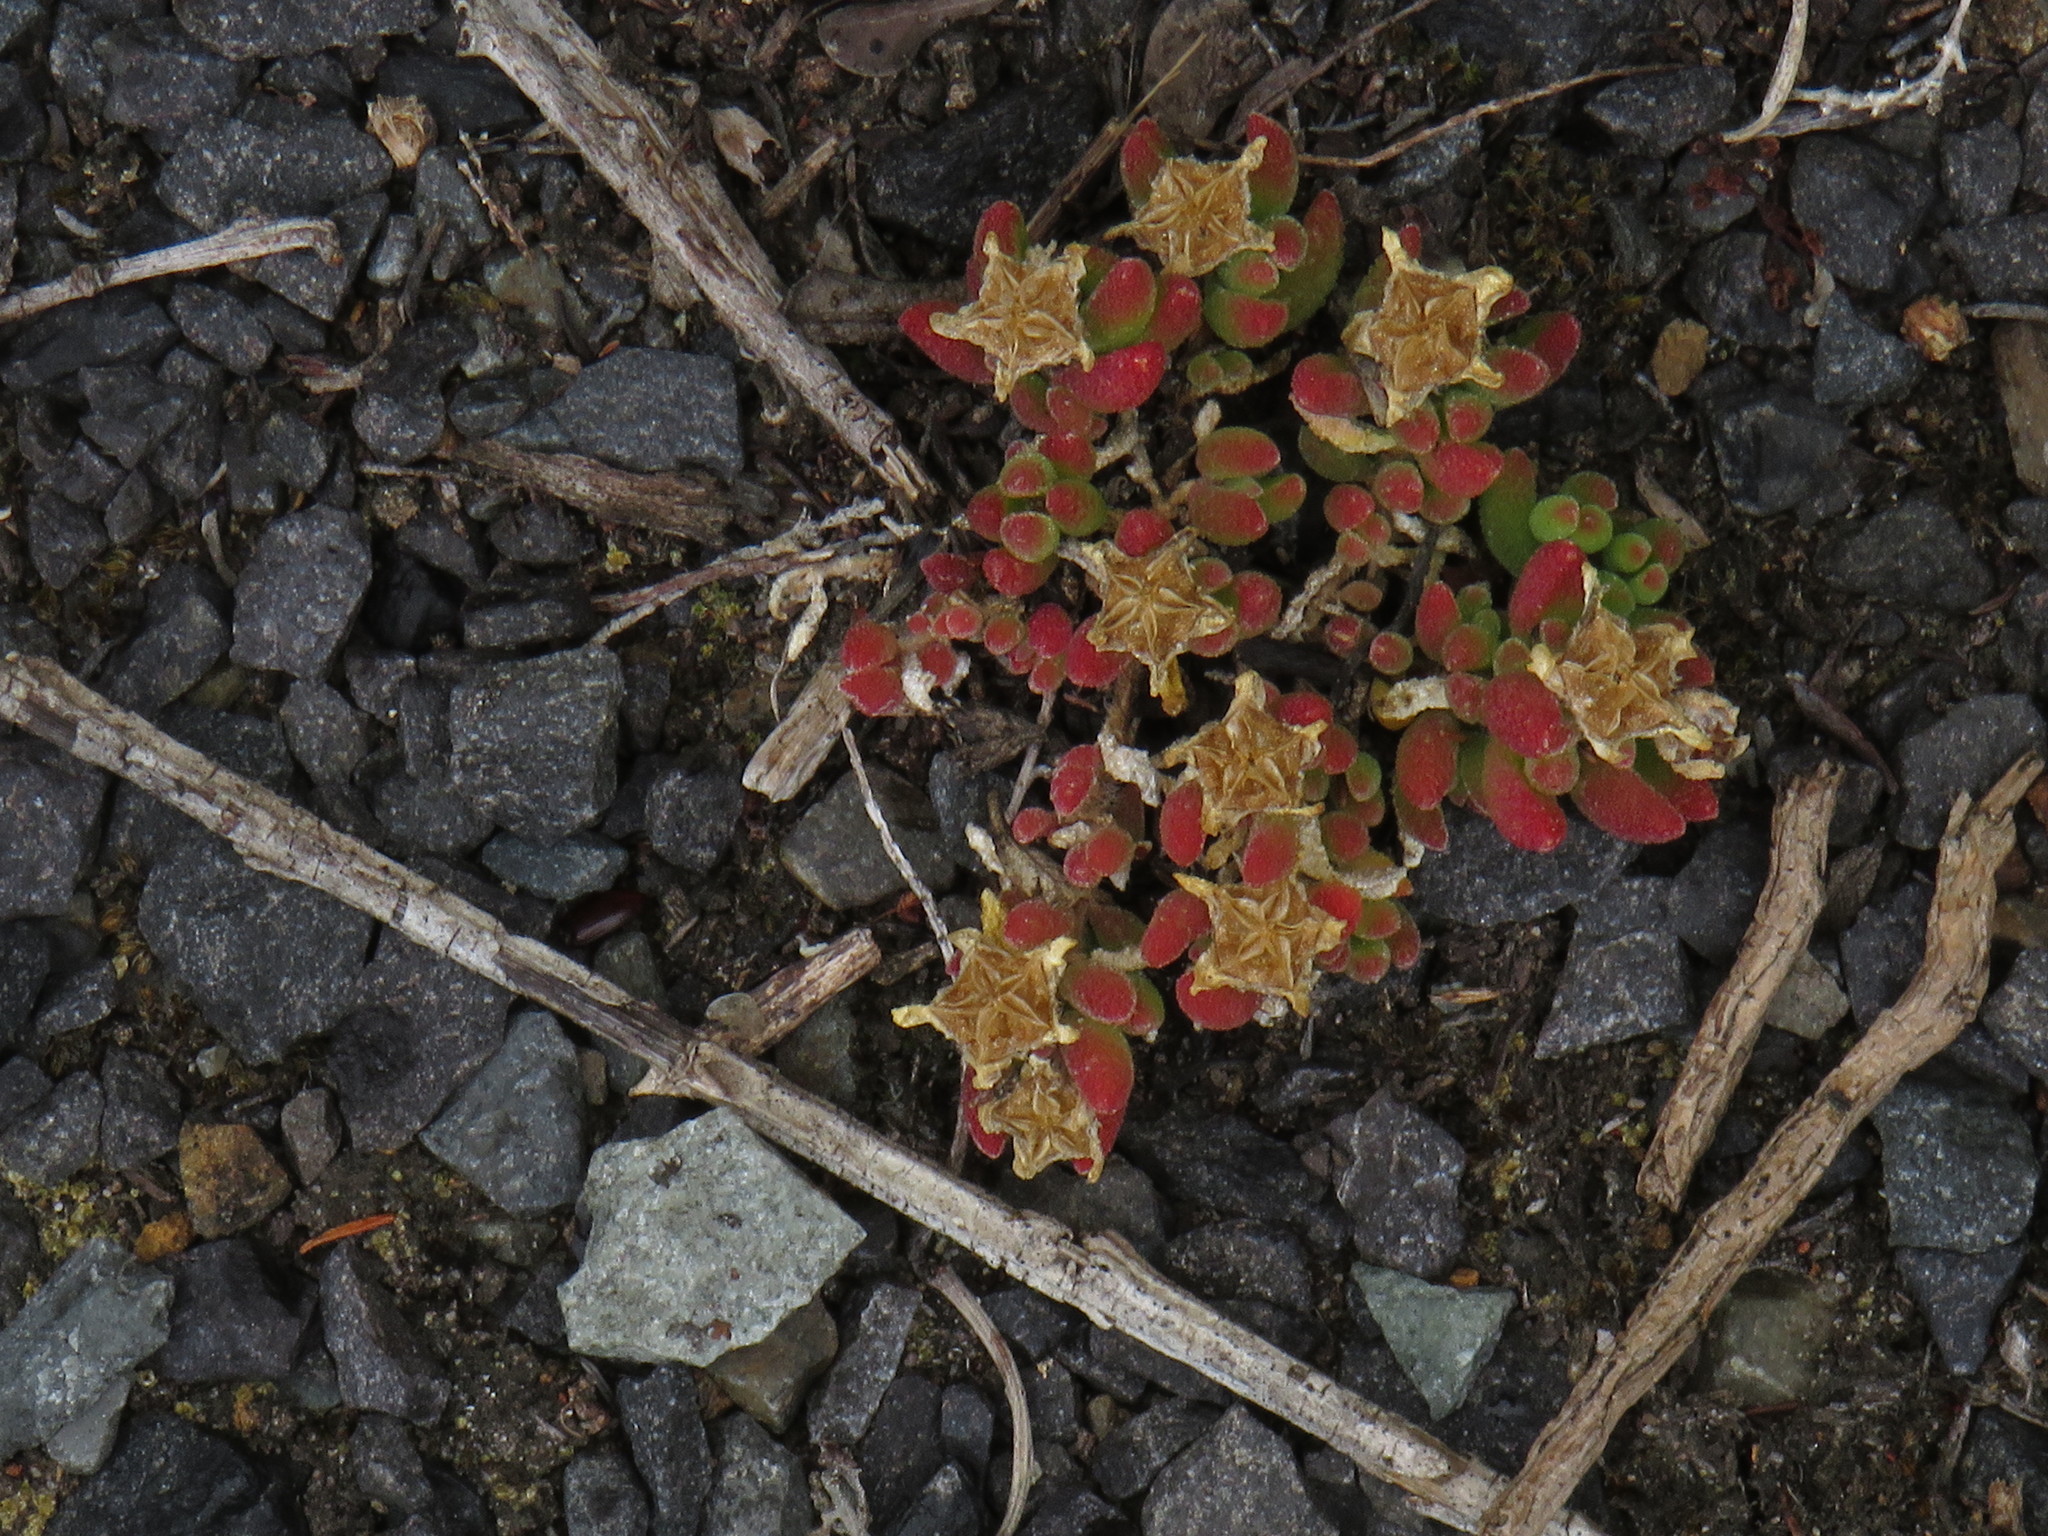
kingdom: Plantae
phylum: Tracheophyta
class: Magnoliopsida
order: Caryophyllales
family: Aizoaceae
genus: Drosanthemum
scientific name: Drosanthemum stokoei
